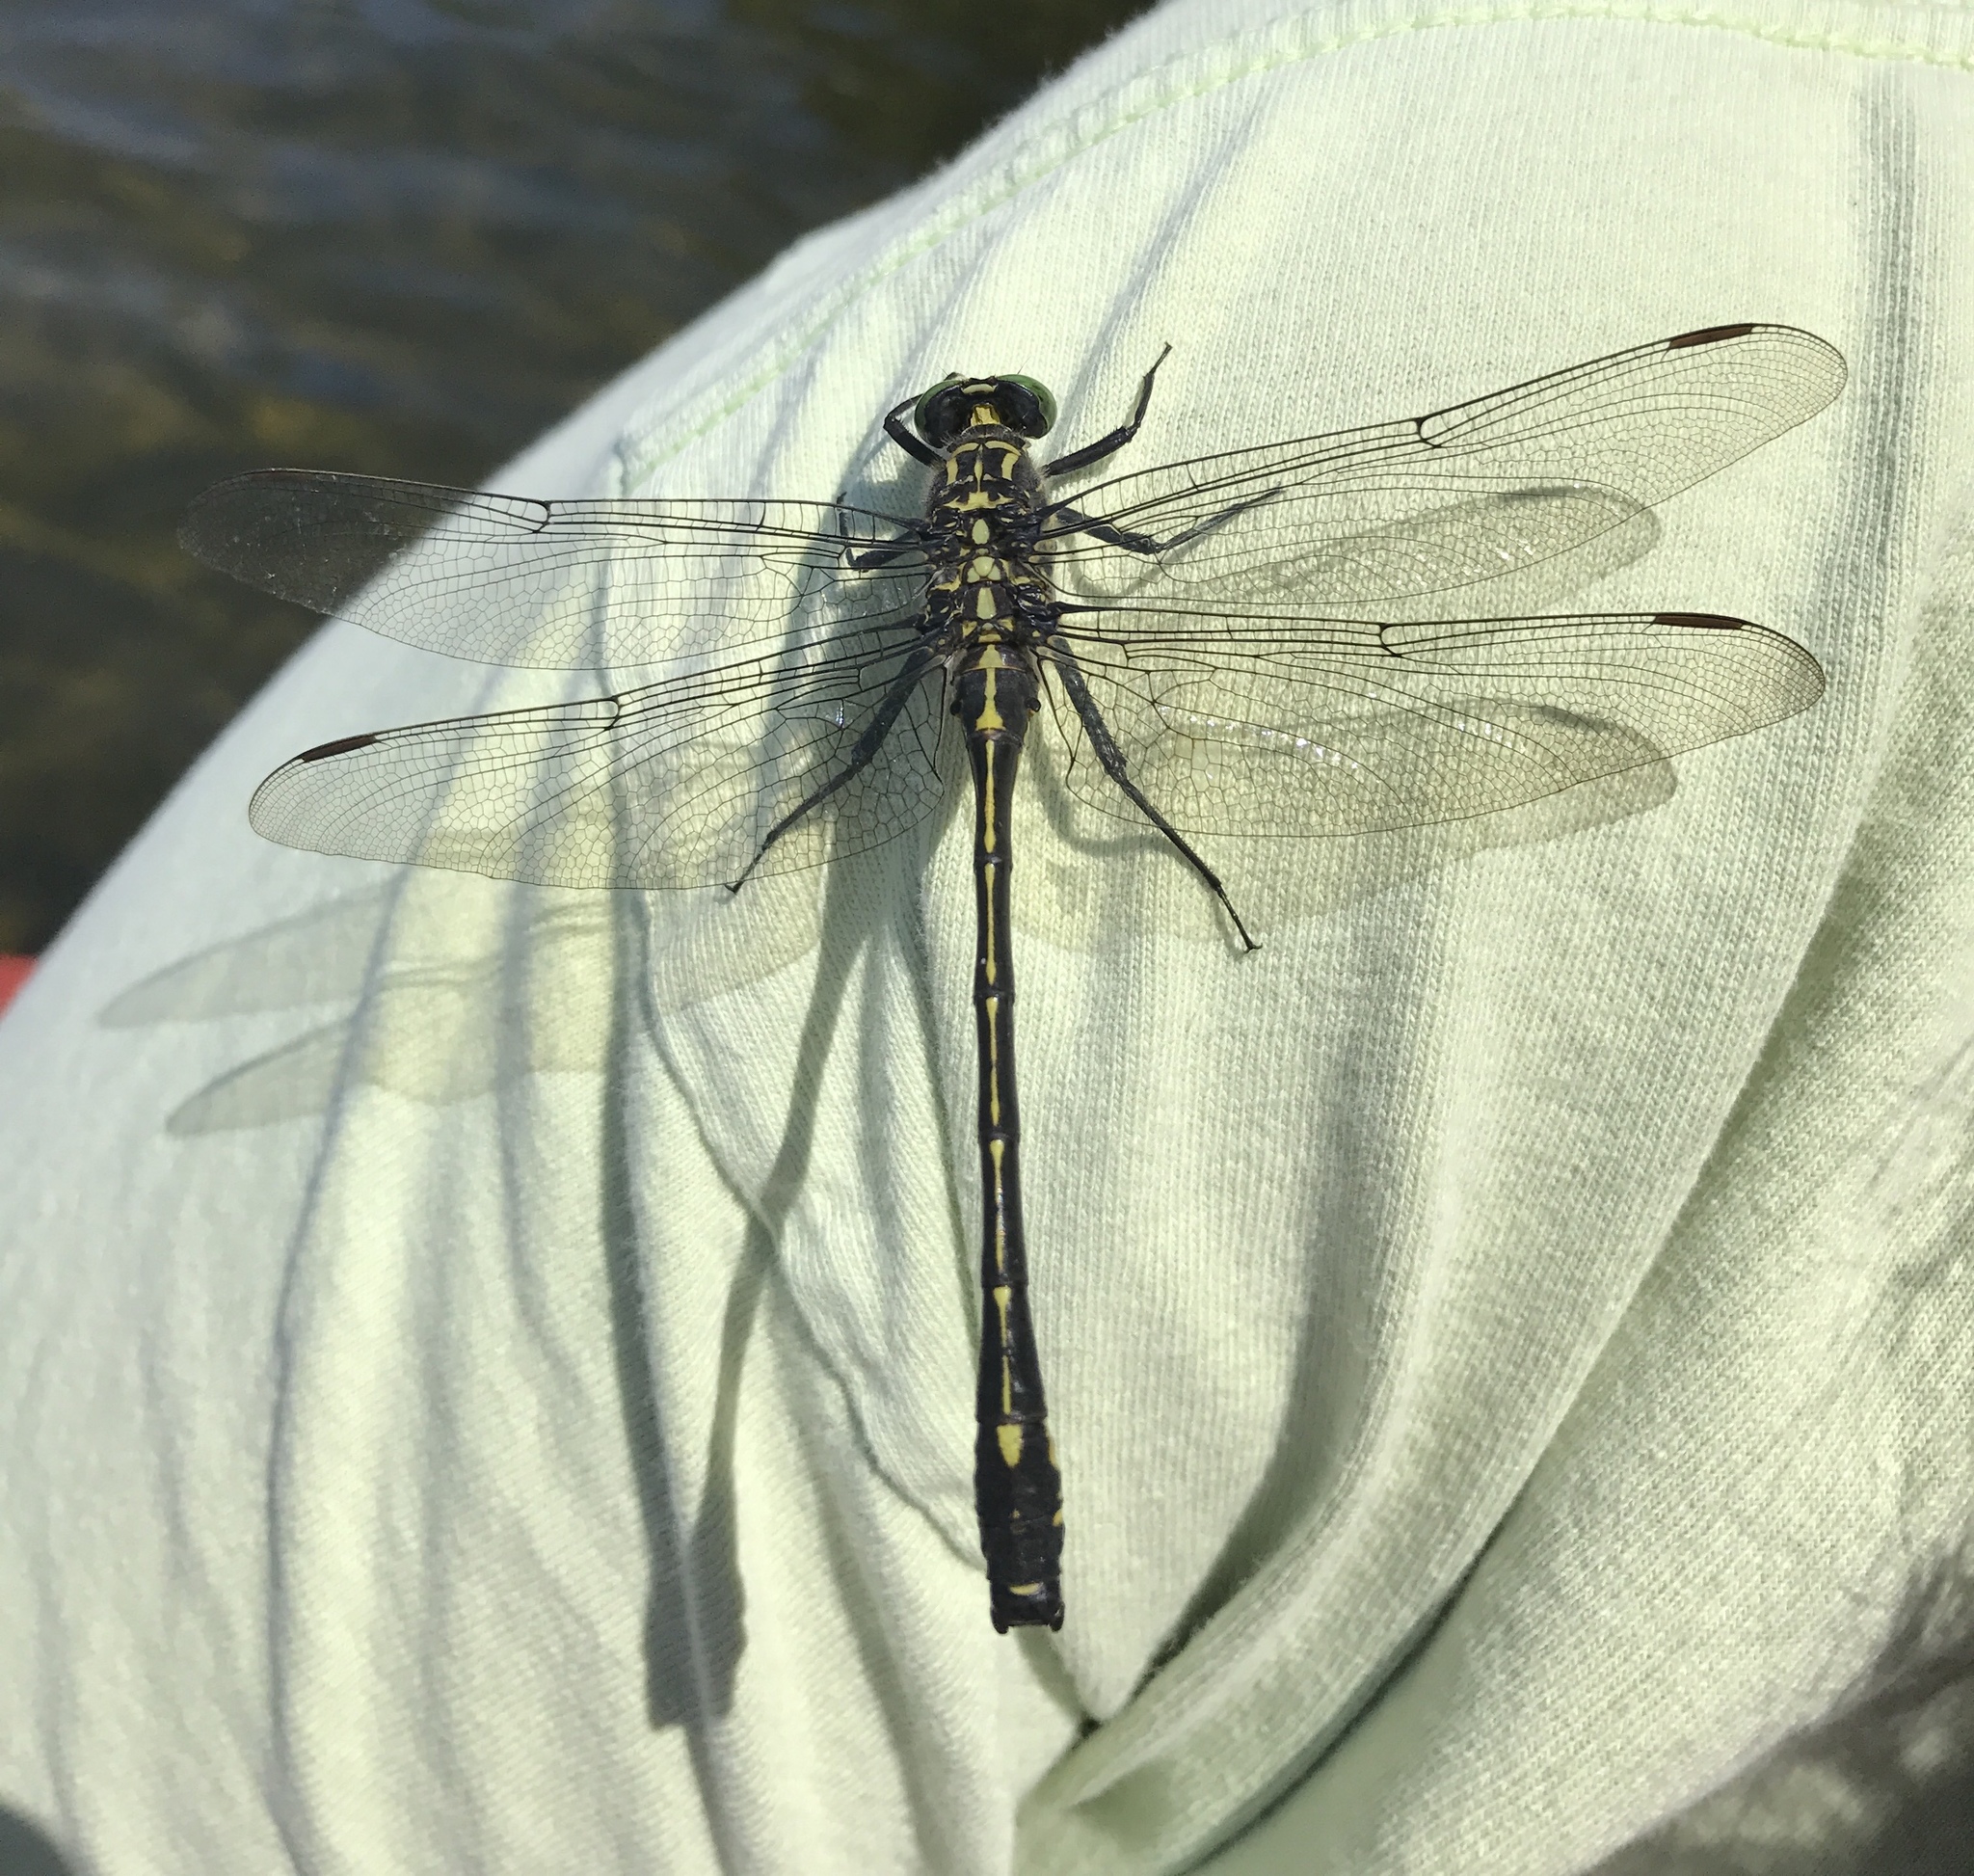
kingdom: Animalia
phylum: Arthropoda
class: Insecta
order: Odonata
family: Gomphidae
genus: Hagenius
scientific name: Hagenius brevistylus
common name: Dragonhunter
